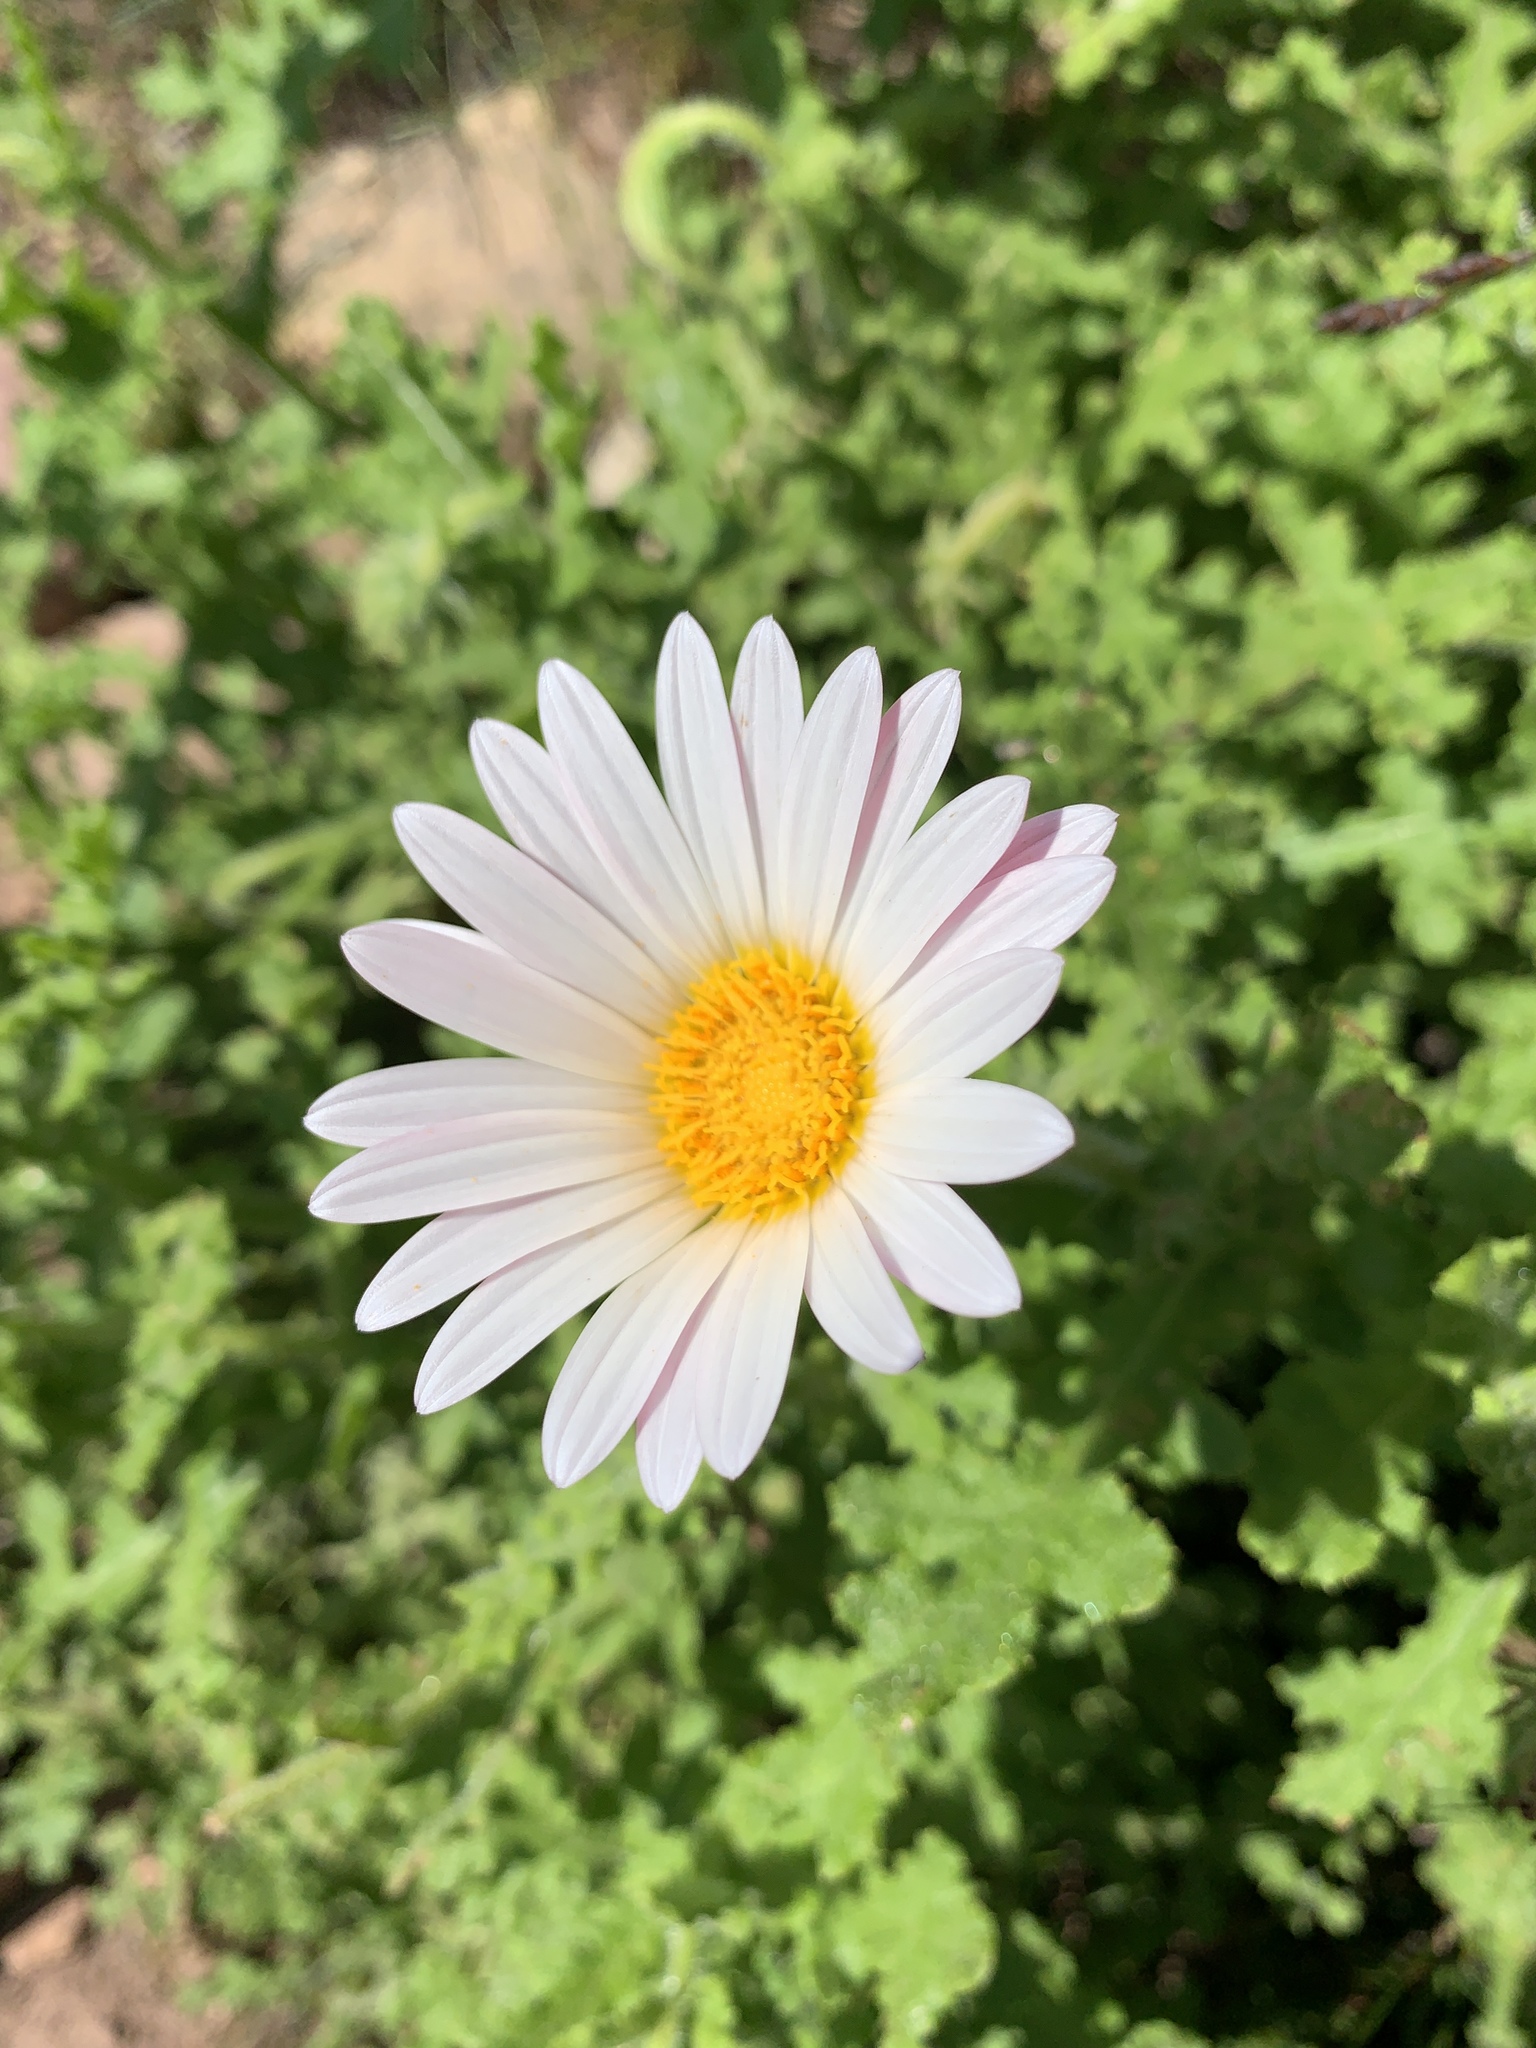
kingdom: Plantae
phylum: Tracheophyta
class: Magnoliopsida
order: Asterales
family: Asteraceae
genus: Arctotis
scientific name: Arctotis aspera
